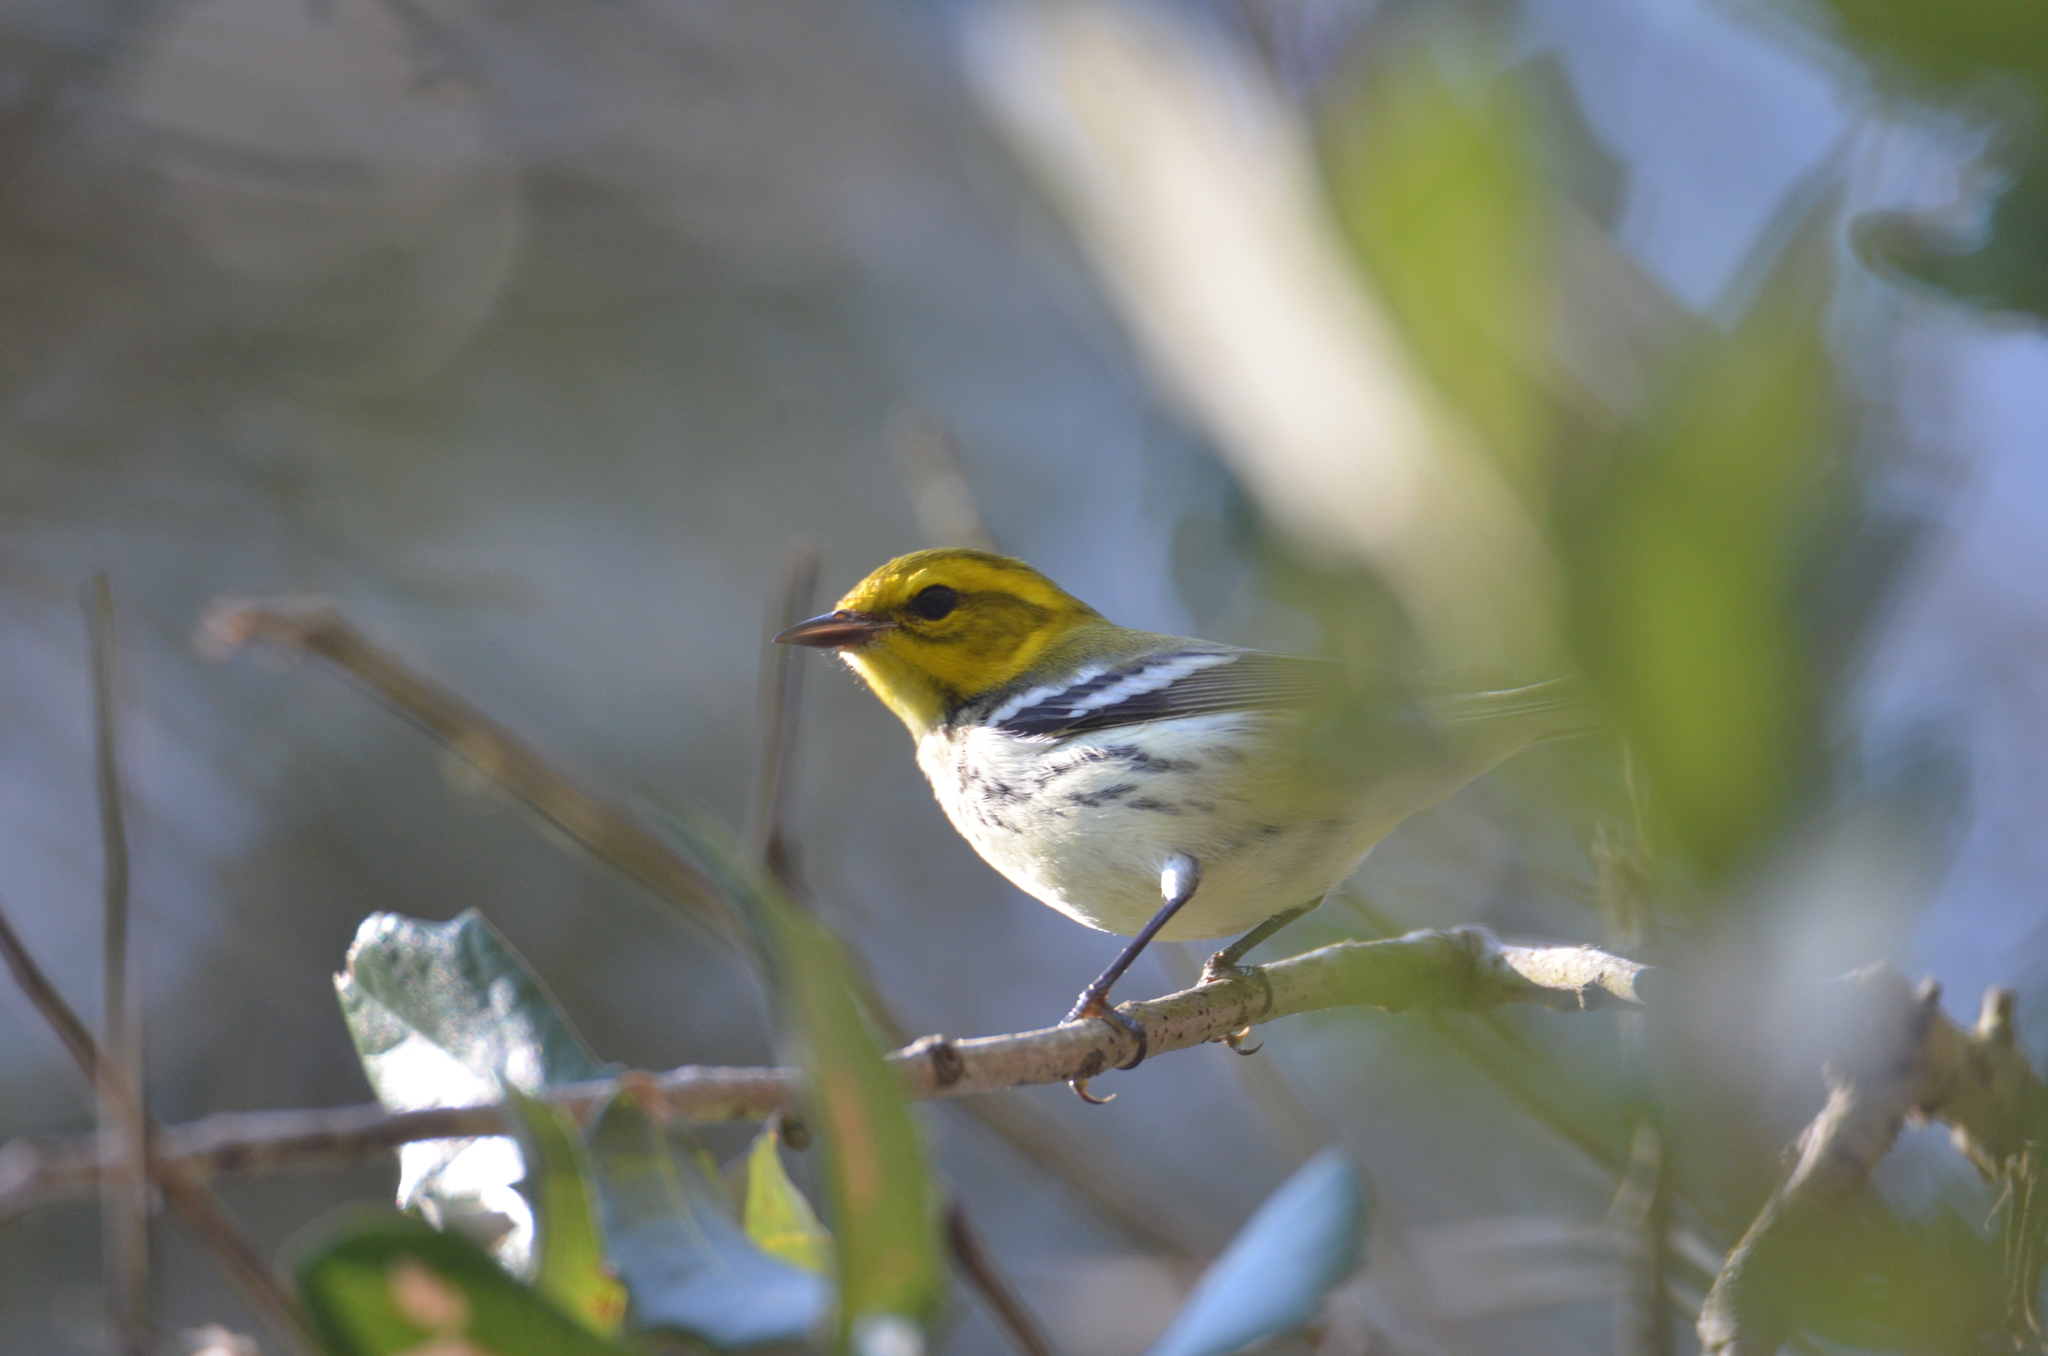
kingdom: Animalia
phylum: Chordata
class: Aves
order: Passeriformes
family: Parulidae
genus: Setophaga
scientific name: Setophaga virens
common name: Black-throated green warbler
